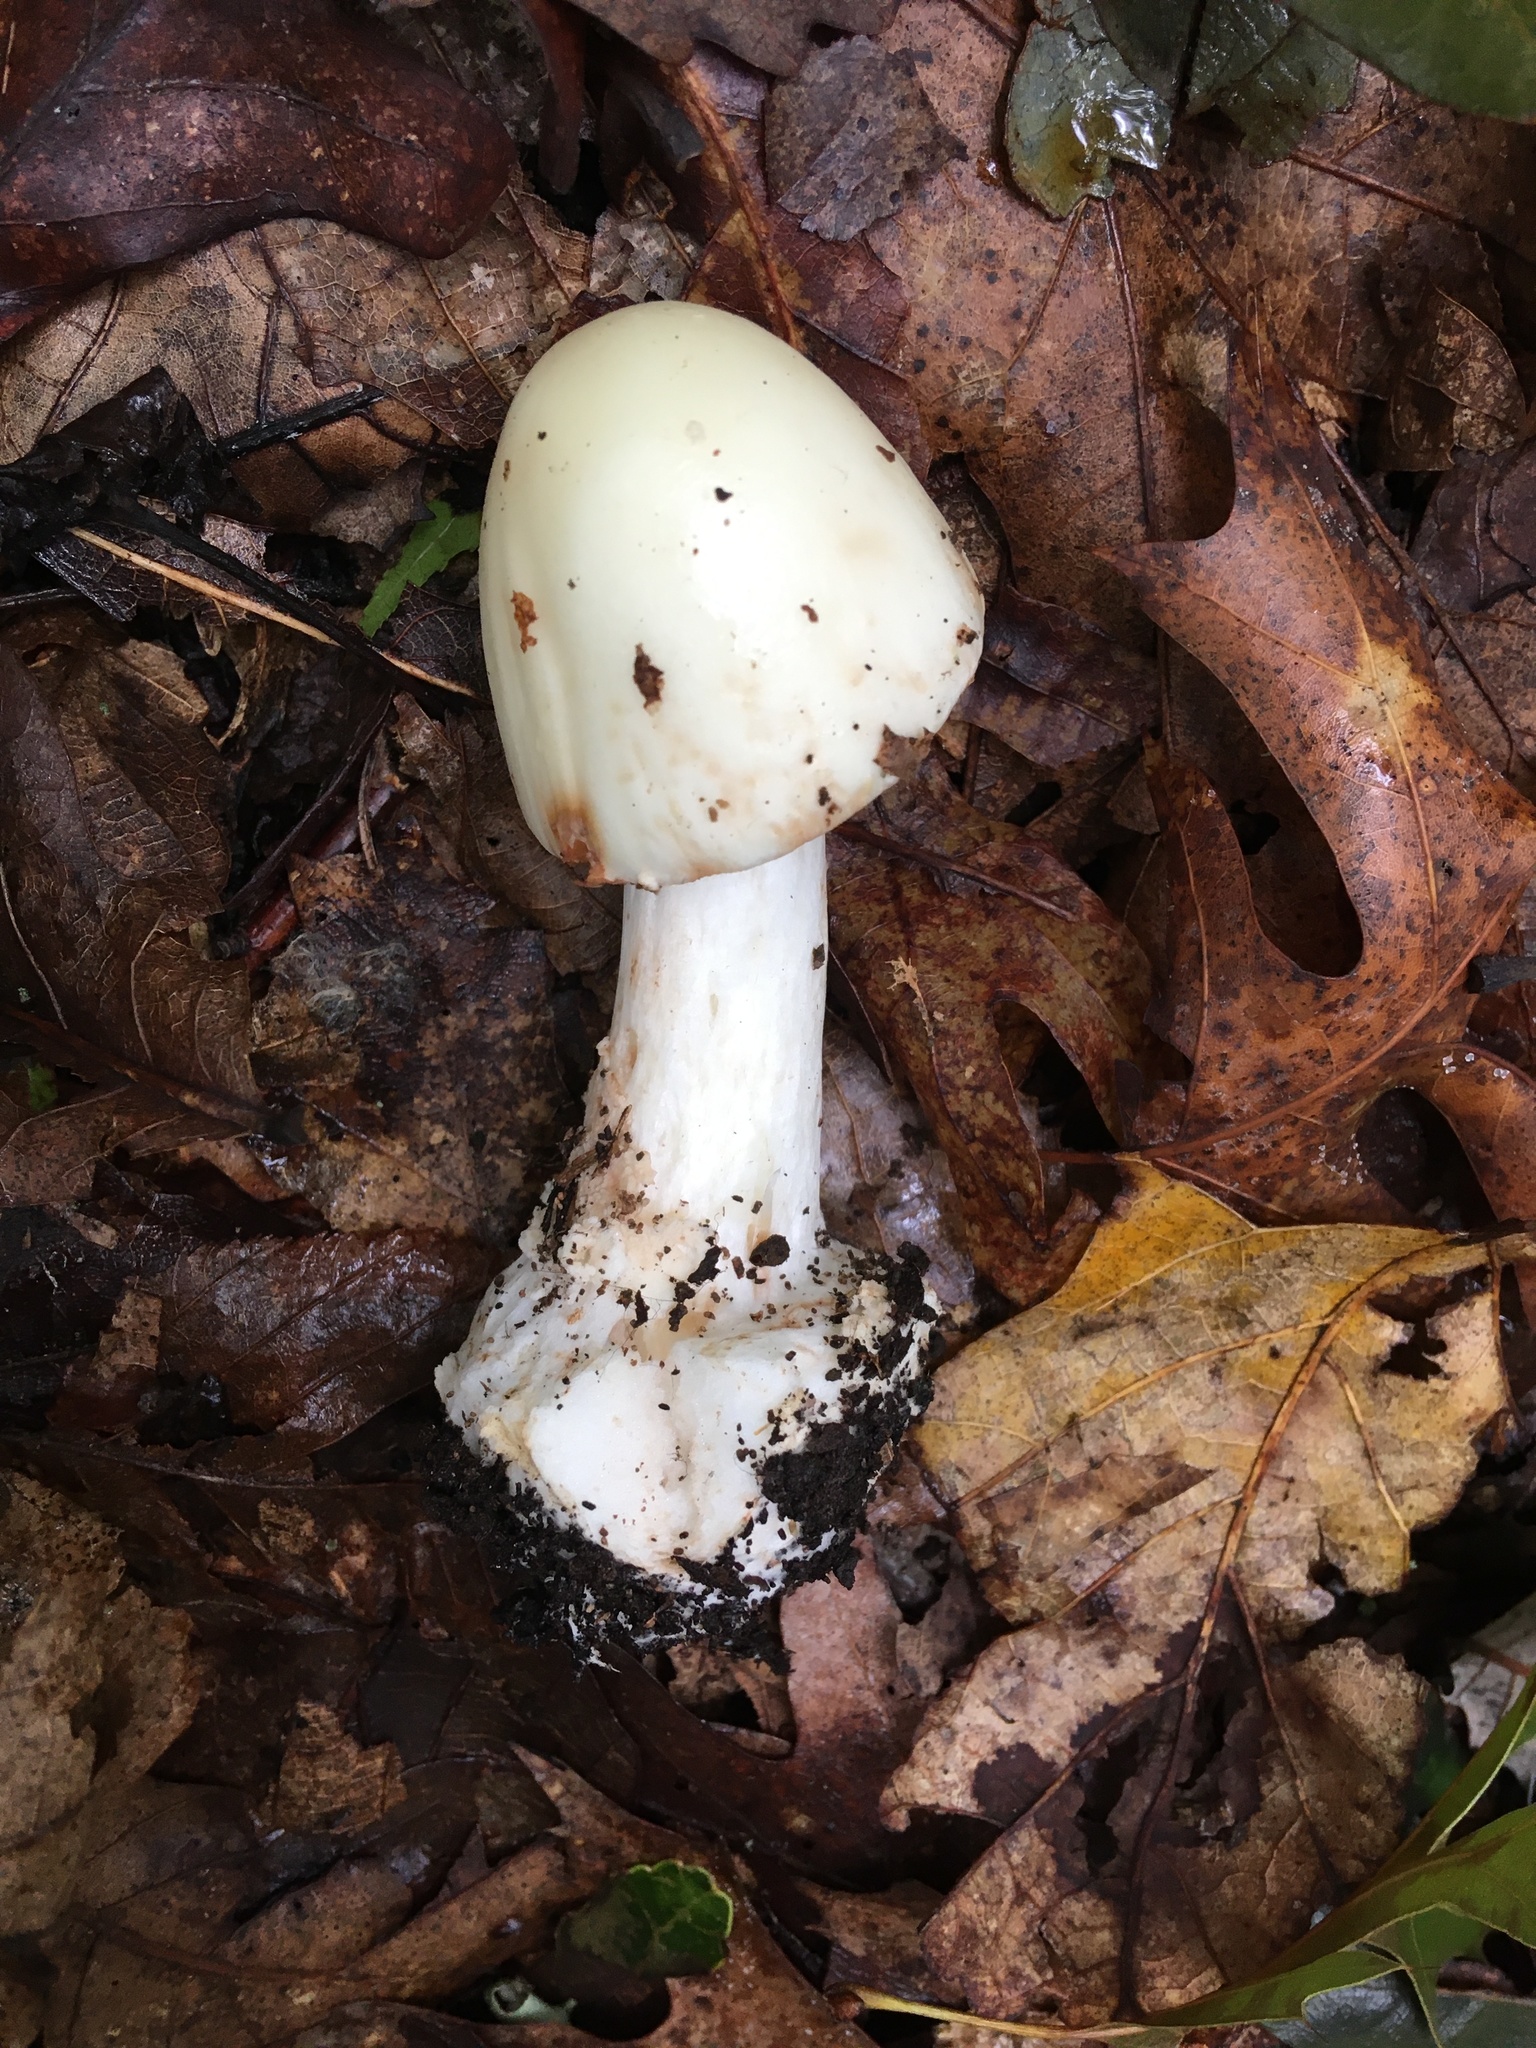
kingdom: Fungi
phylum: Basidiomycota
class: Agaricomycetes
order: Agaricales
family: Amanitaceae
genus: Amanita
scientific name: Amanita brunnescens
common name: Brown american star-footed amanita
